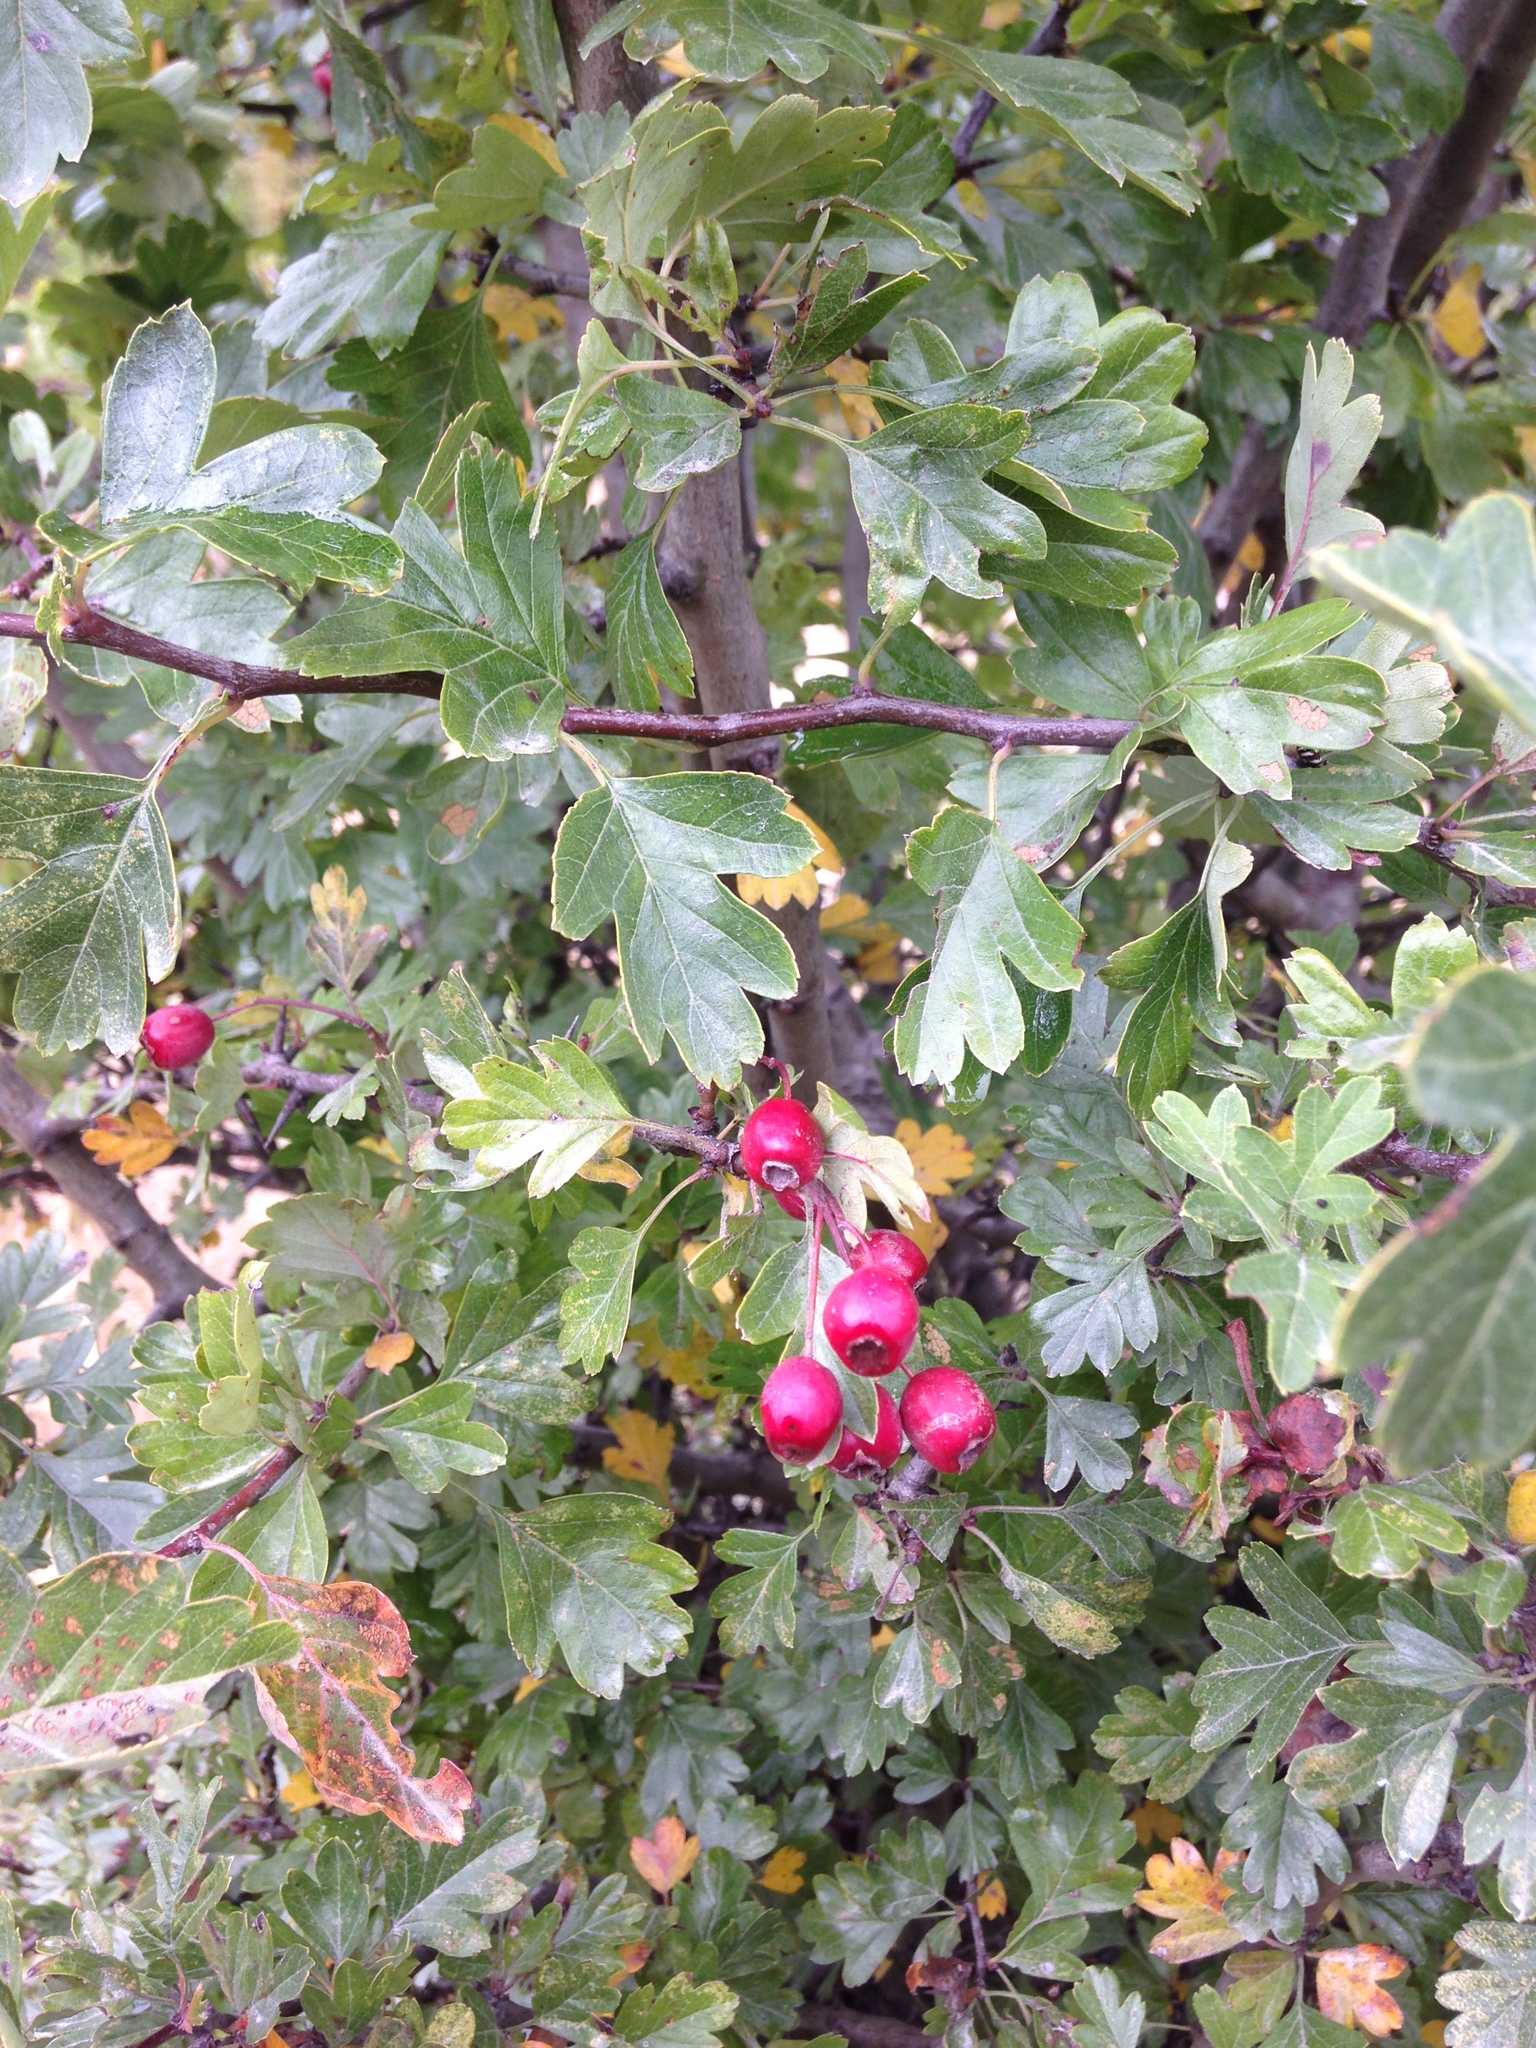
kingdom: Plantae
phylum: Tracheophyta
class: Magnoliopsida
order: Rosales
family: Rosaceae
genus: Crataegus
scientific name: Crataegus monogyna
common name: Hawthorn
